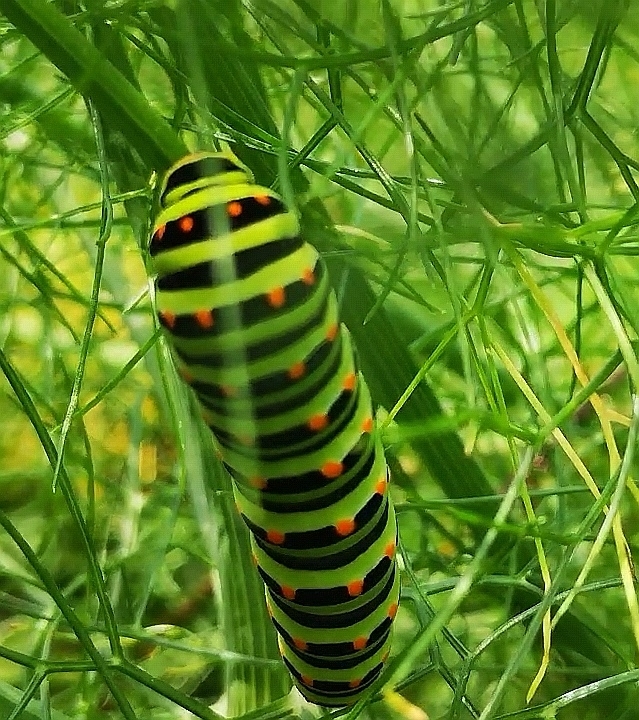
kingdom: Animalia
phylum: Arthropoda
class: Insecta
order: Lepidoptera
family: Papilionidae
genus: Papilio
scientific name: Papilio machaon
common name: Swallowtail
